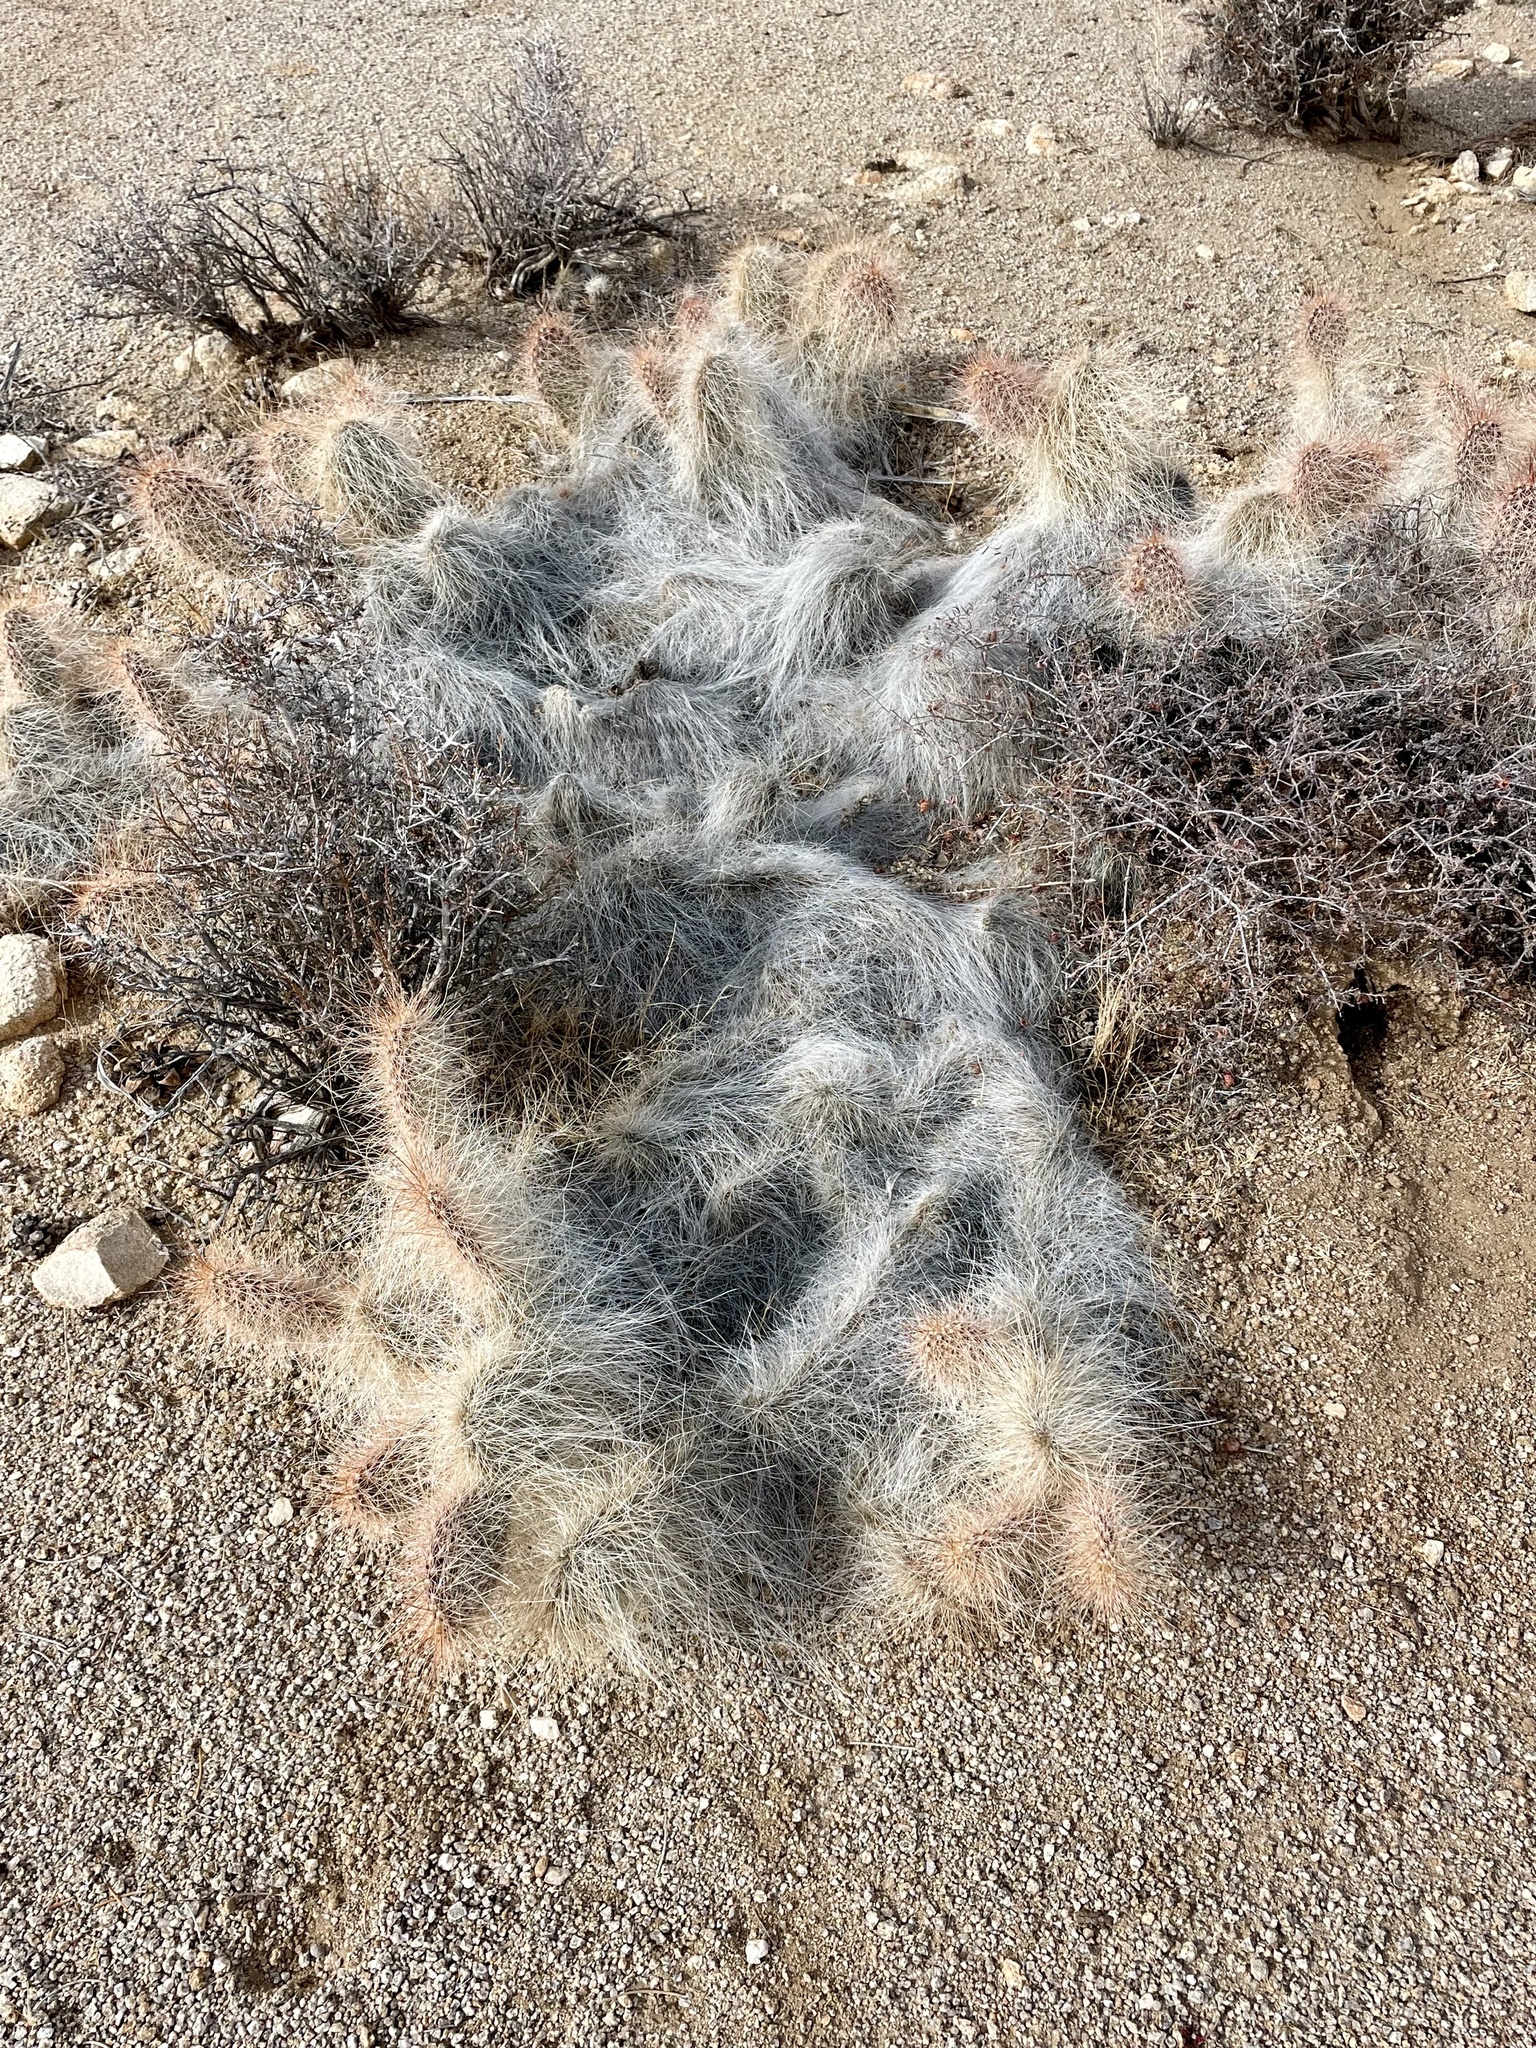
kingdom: Plantae
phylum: Tracheophyta
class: Magnoliopsida
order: Caryophyllales
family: Cactaceae
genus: Opuntia
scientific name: Opuntia polyacantha
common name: Plains prickly-pear
